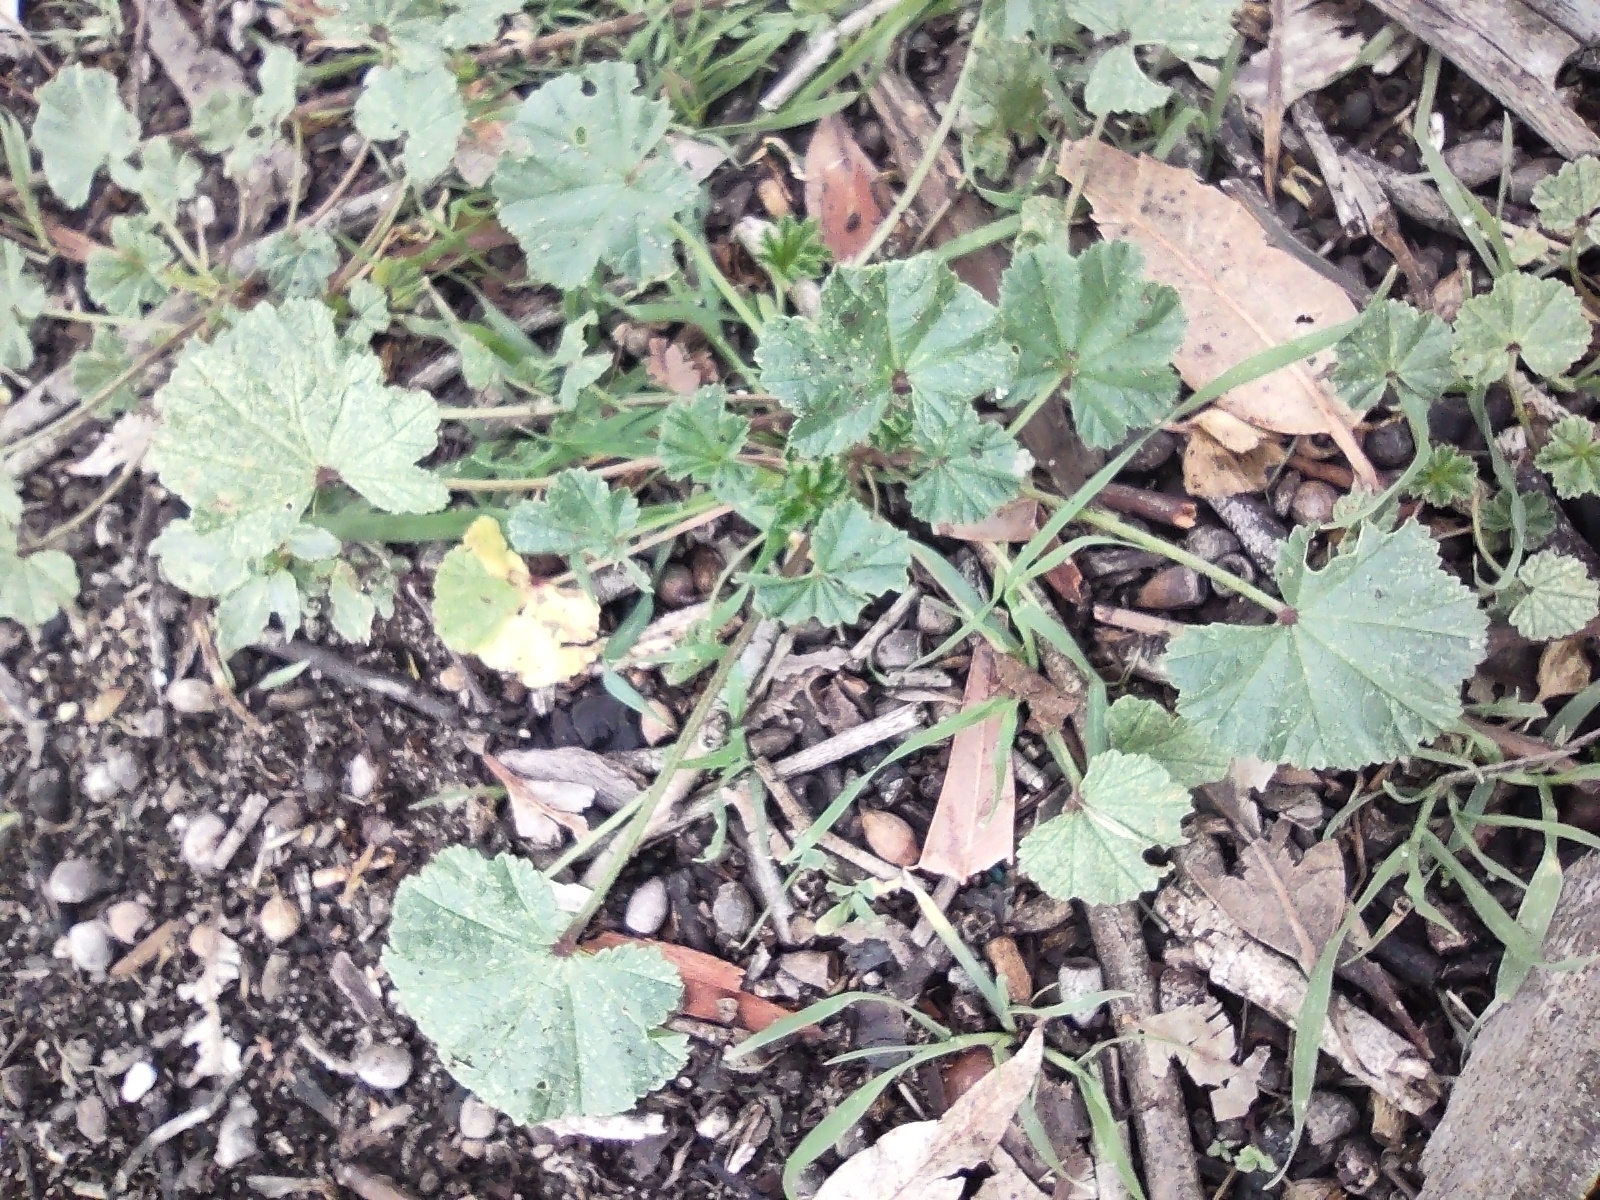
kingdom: Plantae
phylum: Tracheophyta
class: Magnoliopsida
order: Malvales
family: Malvaceae
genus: Malva
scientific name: Malva parviflora
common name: Least mallow
